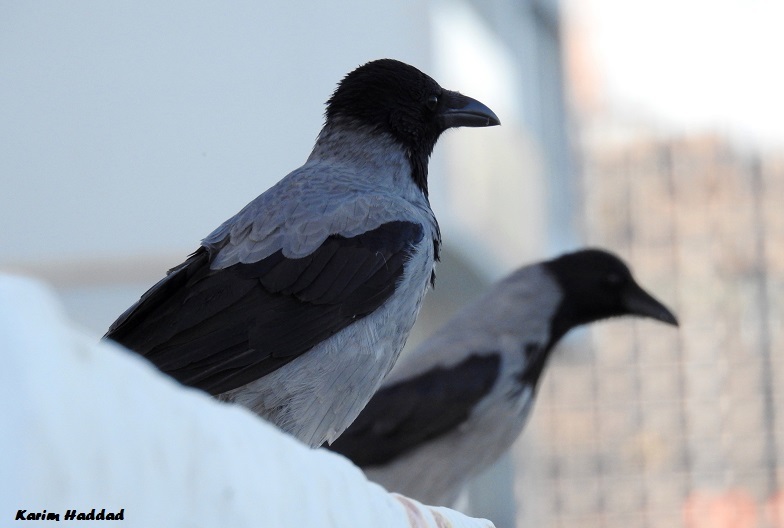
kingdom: Animalia
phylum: Chordata
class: Aves
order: Passeriformes
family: Corvidae
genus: Corvus
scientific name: Corvus cornix
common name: Hooded crow
